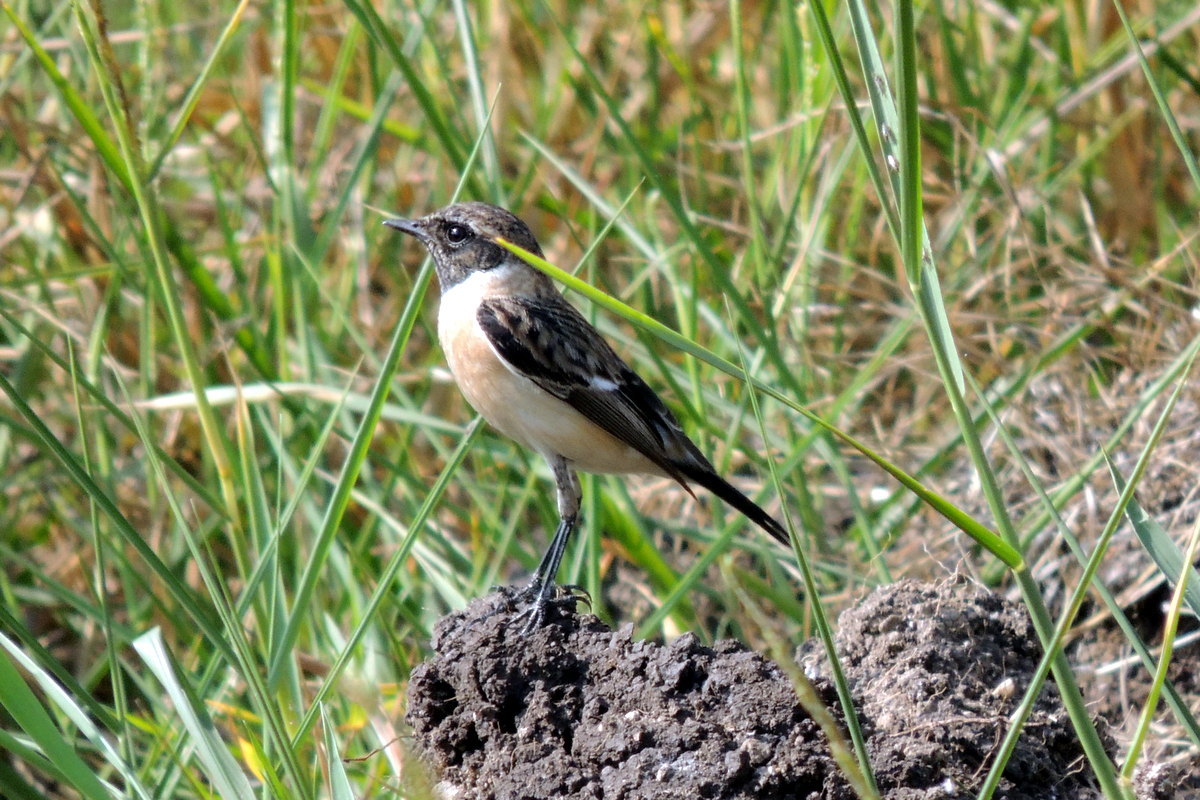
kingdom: Animalia
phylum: Chordata
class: Aves
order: Passeriformes
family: Muscicapidae
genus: Saxicola
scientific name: Saxicola maurus
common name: Siberian stonechat
